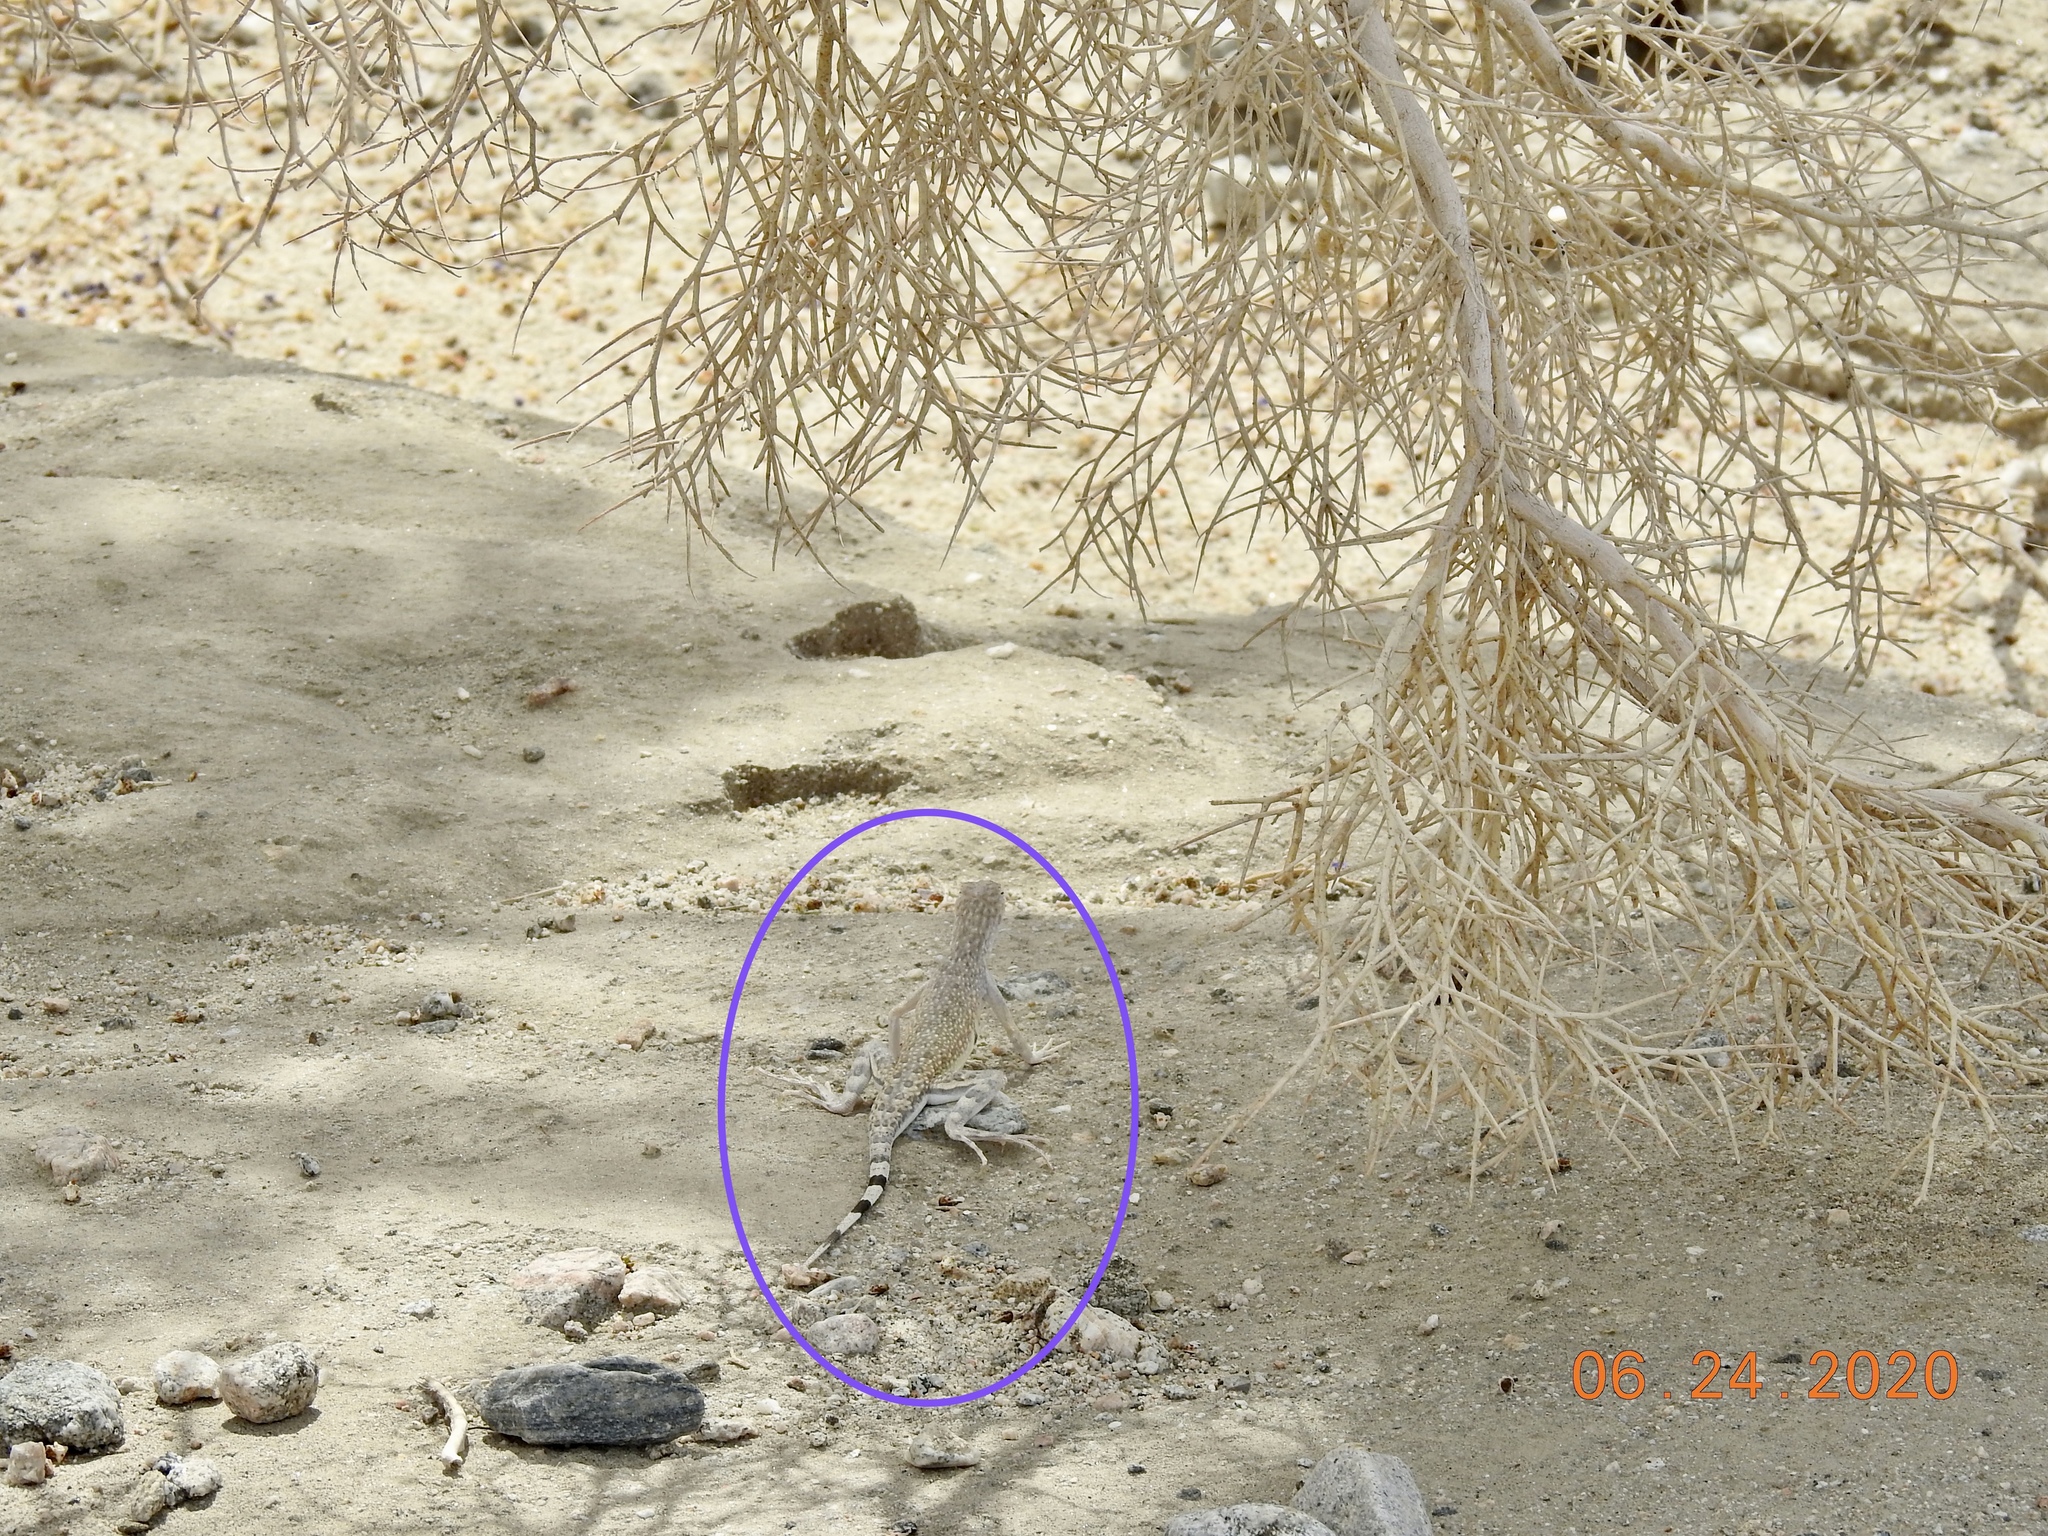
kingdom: Animalia
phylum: Chordata
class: Squamata
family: Phrynosomatidae
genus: Callisaurus
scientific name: Callisaurus draconoides
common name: Zebra-tailed lizard
